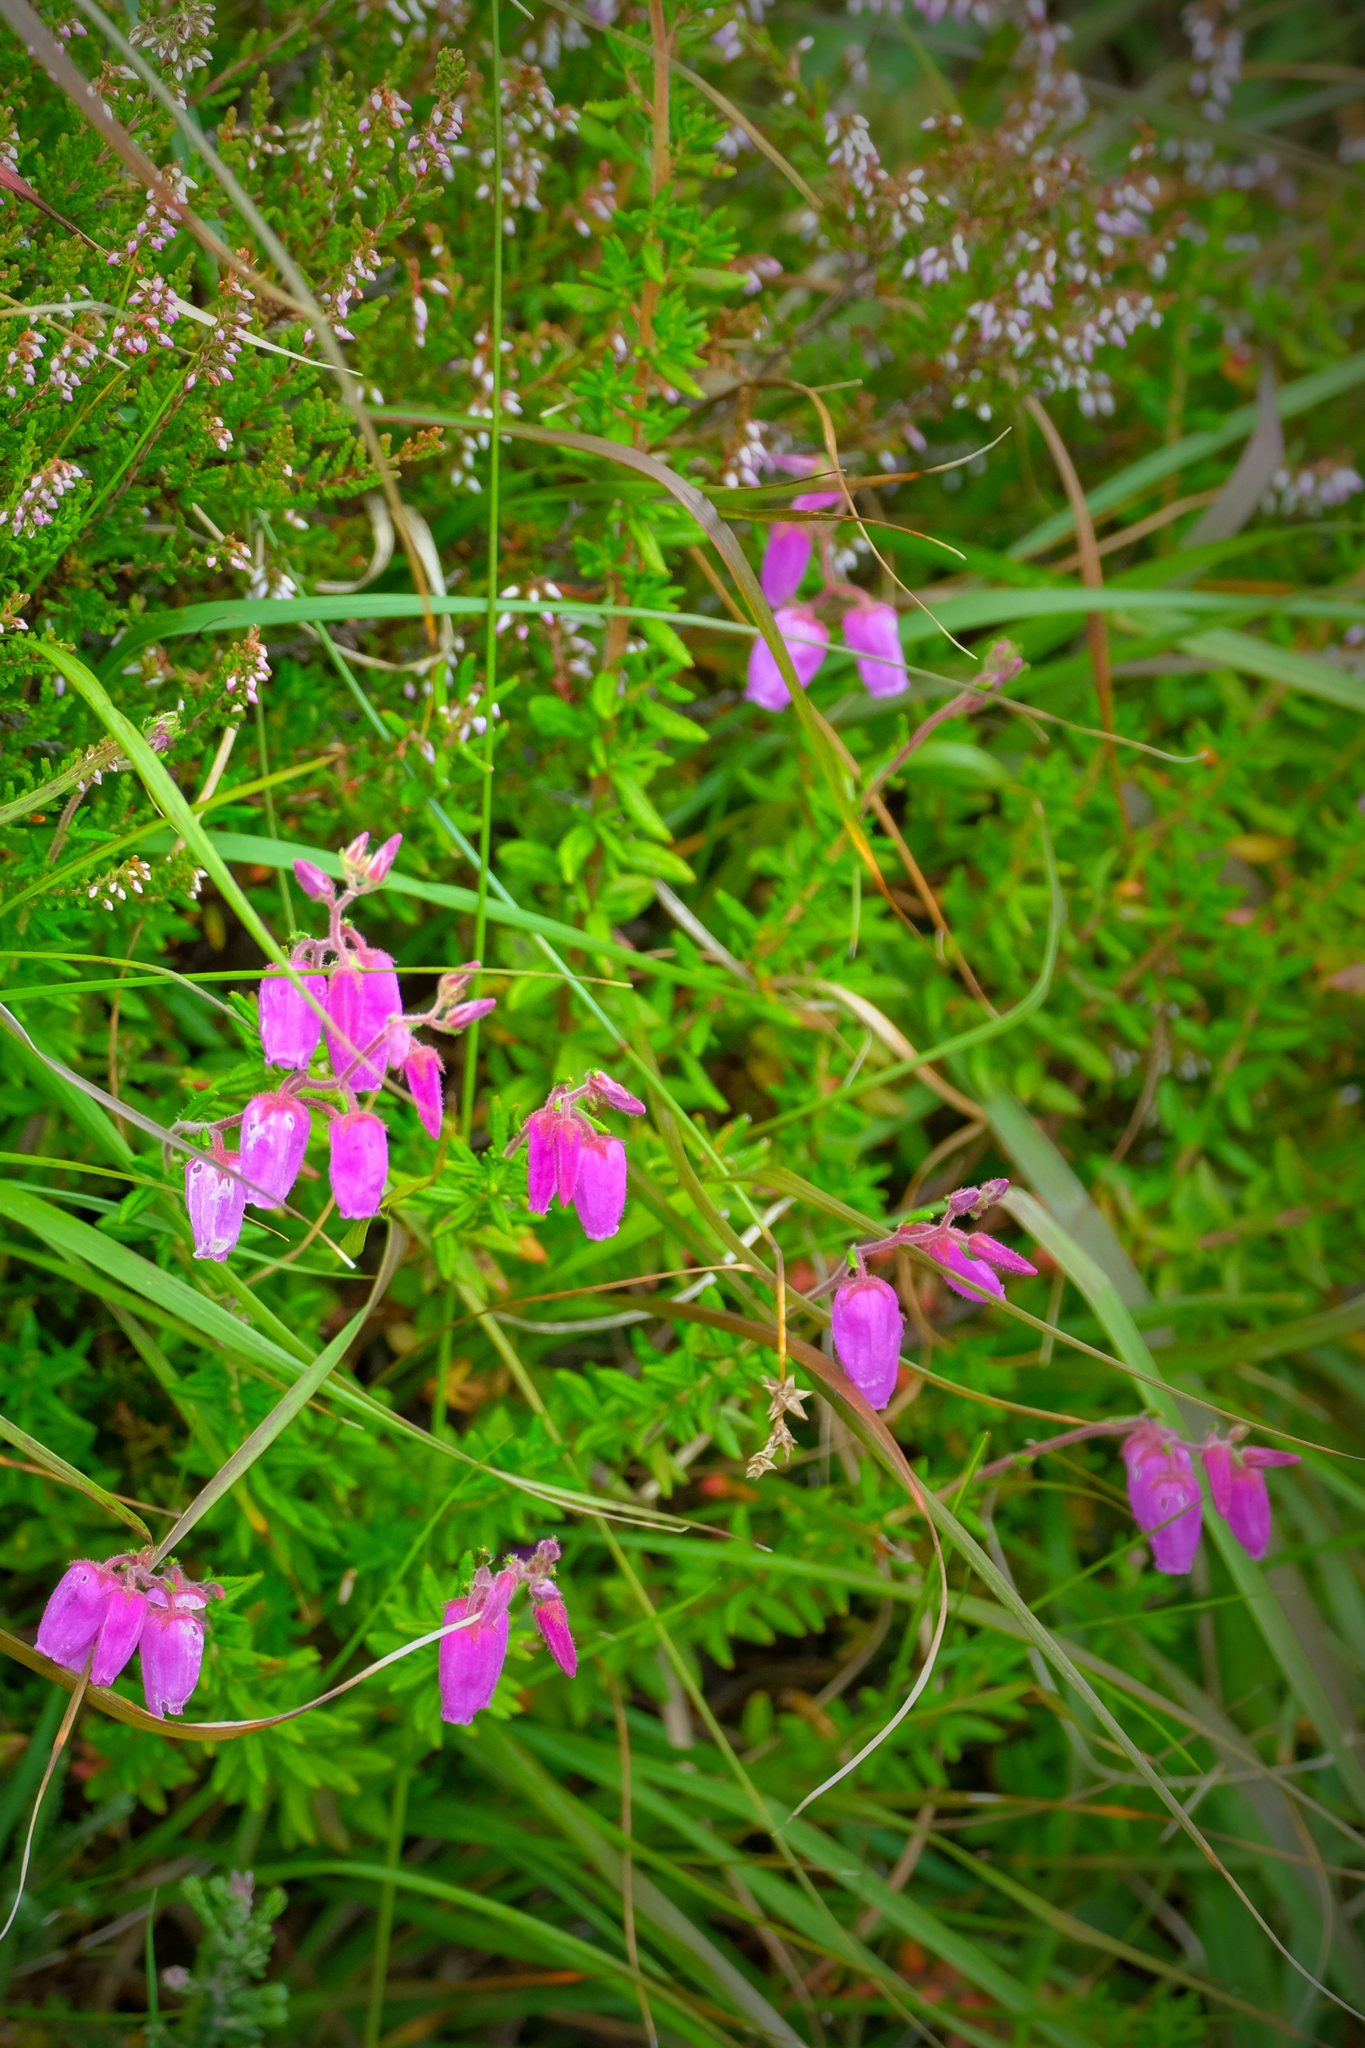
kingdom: Plantae
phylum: Tracheophyta
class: Magnoliopsida
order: Ericales
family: Ericaceae
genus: Daboecia
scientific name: Daboecia cantabrica
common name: St. dabeoc's-heath
